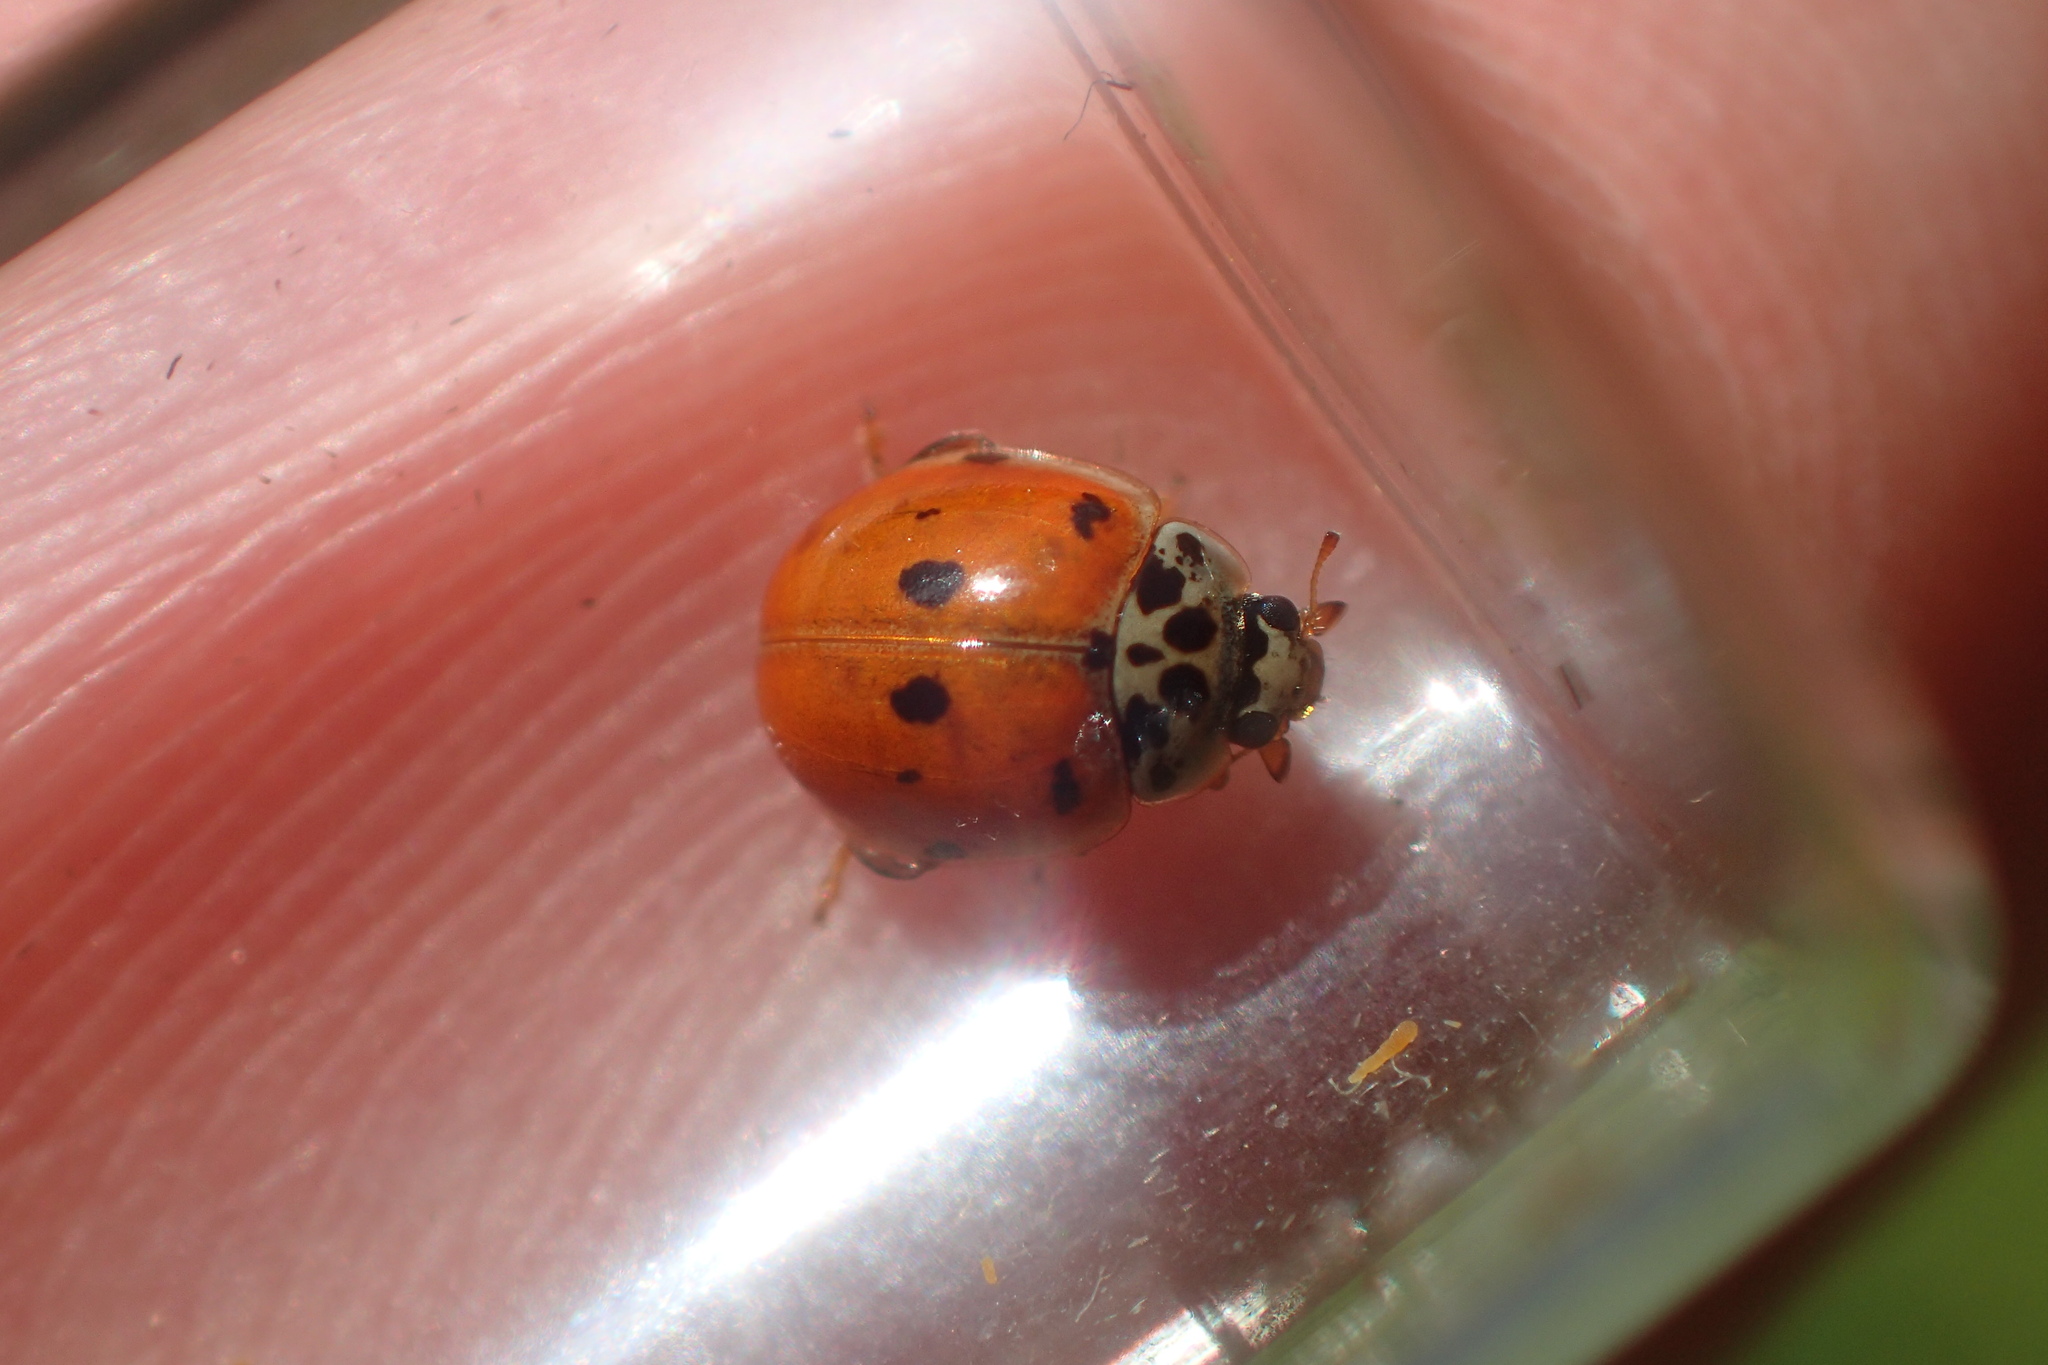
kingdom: Animalia
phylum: Arthropoda
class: Insecta
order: Coleoptera
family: Coccinellidae
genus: Adalia
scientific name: Adalia decempunctata
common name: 10-spot ladybird
